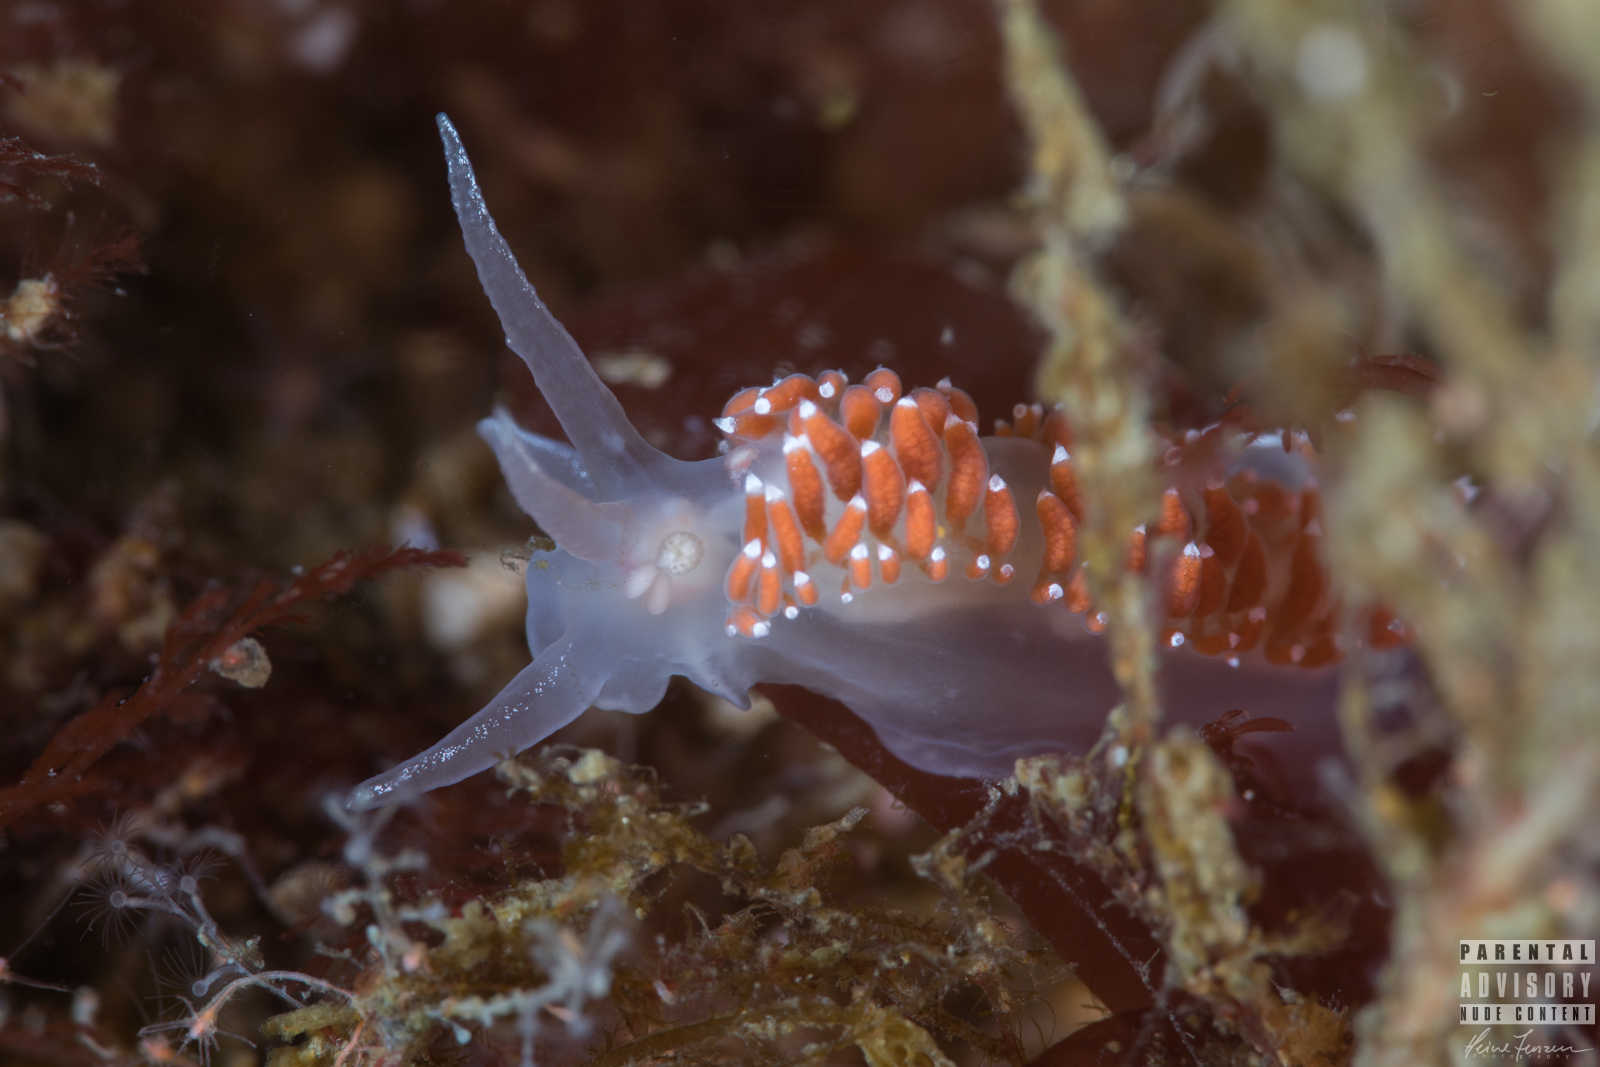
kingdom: Animalia
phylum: Mollusca
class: Gastropoda
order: Nudibranchia
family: Coryphellidae
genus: Coryphella
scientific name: Coryphella verrucosa
